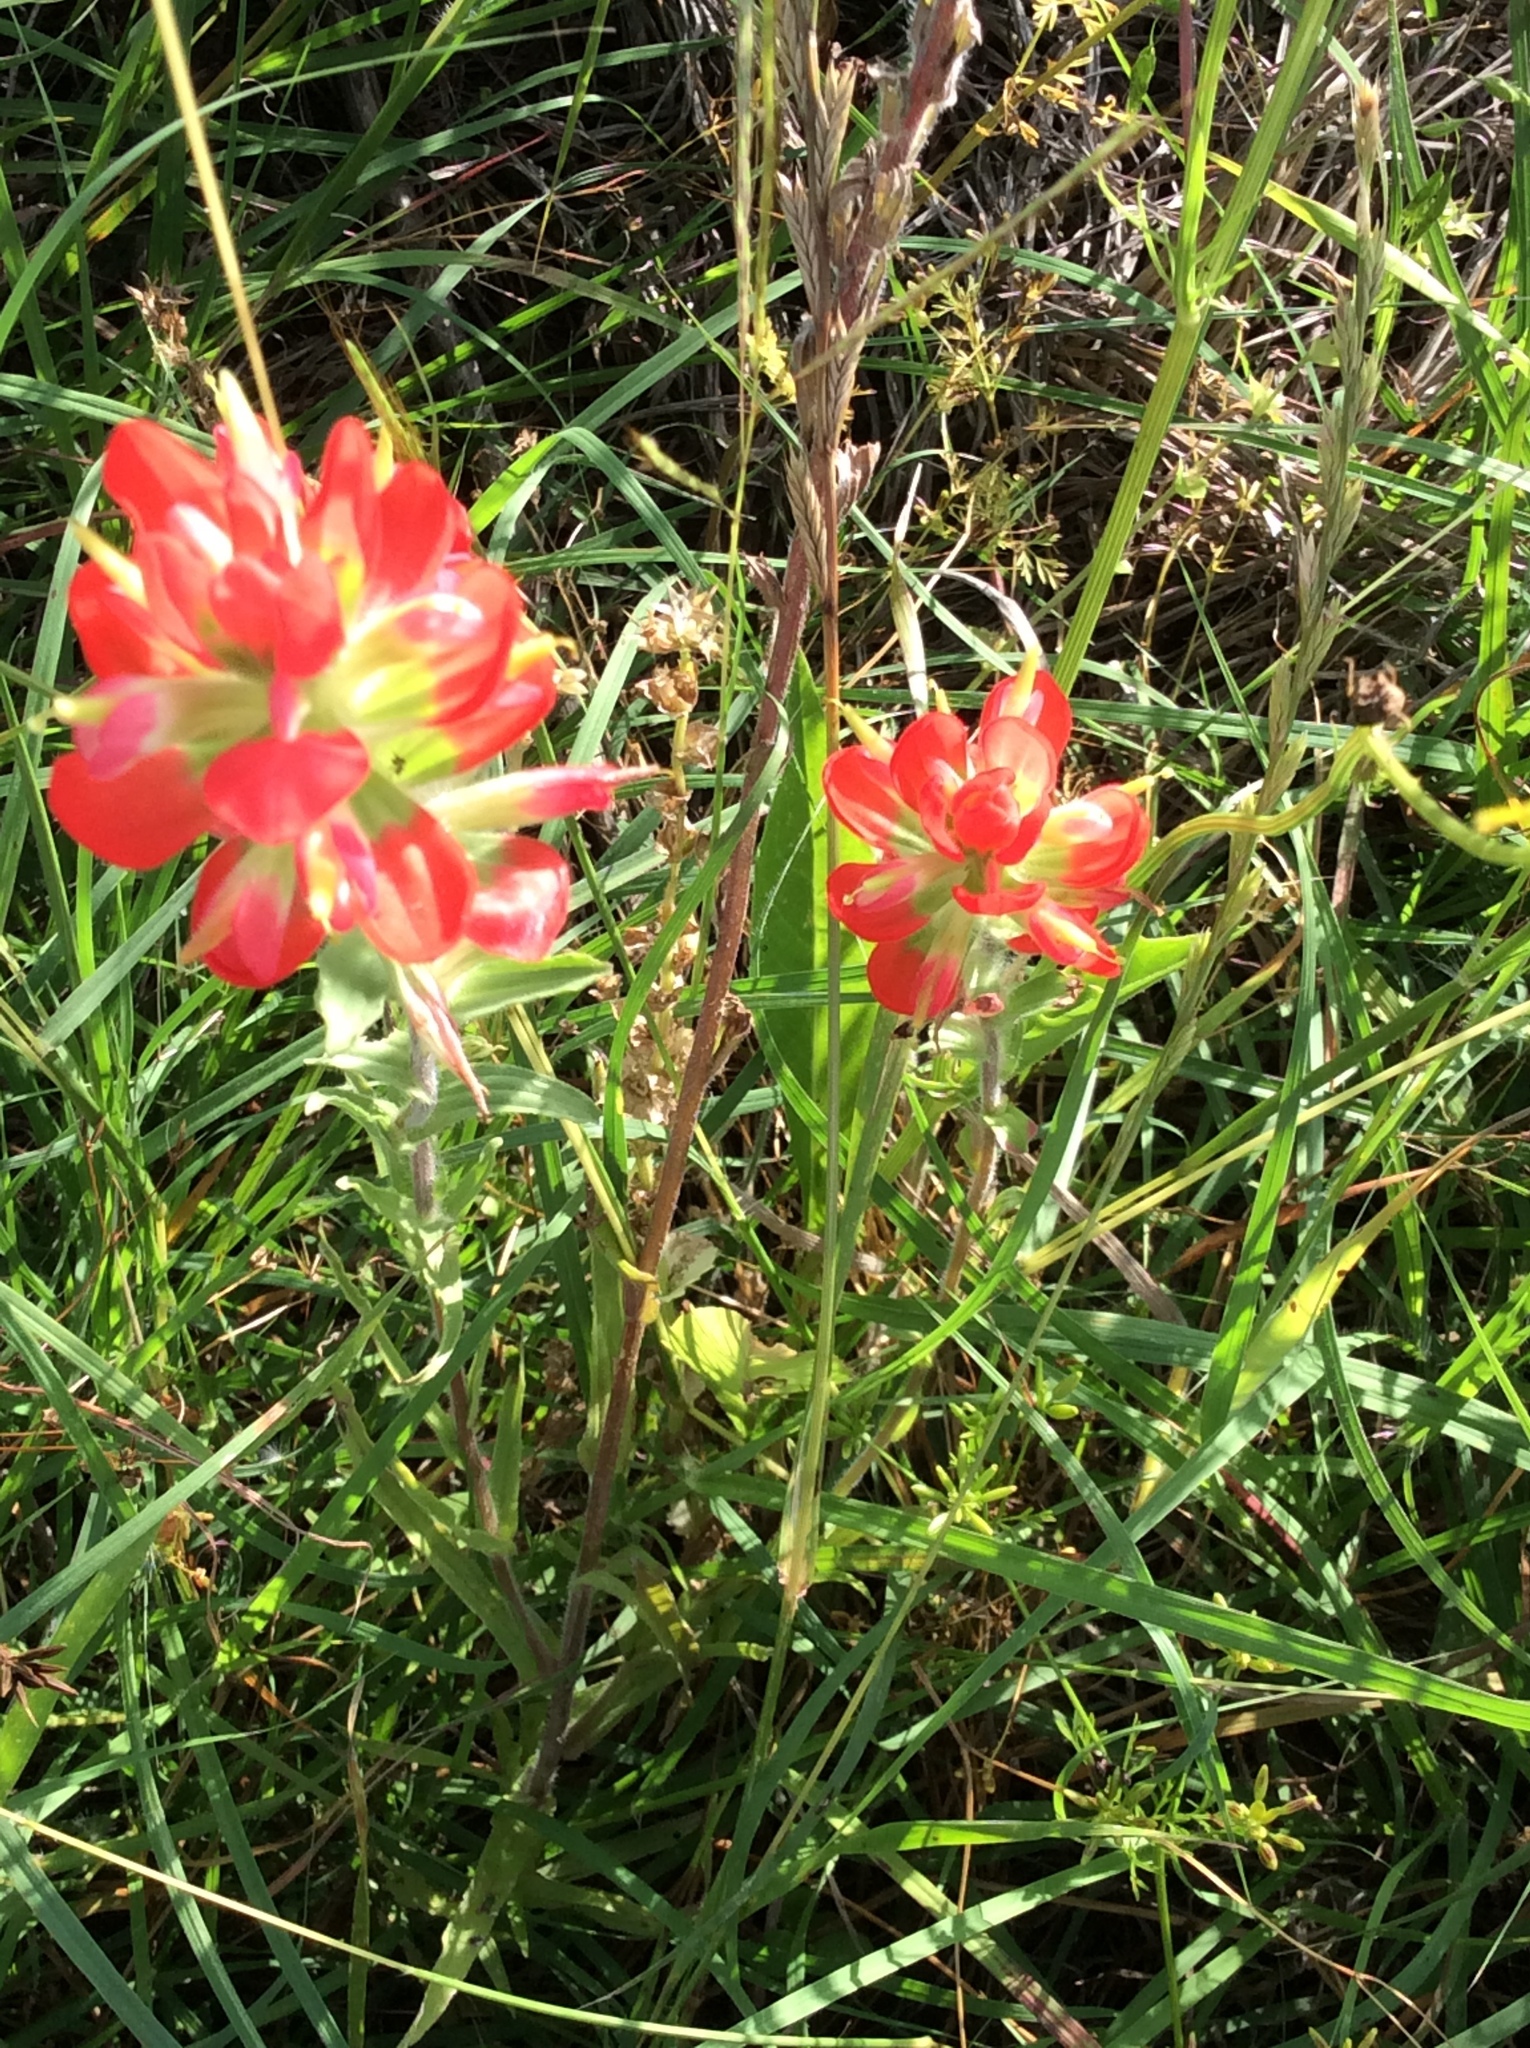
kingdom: Plantae
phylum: Tracheophyta
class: Magnoliopsida
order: Lamiales
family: Orobanchaceae
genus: Castilleja
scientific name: Castilleja indivisa
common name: Texas paintbrush
